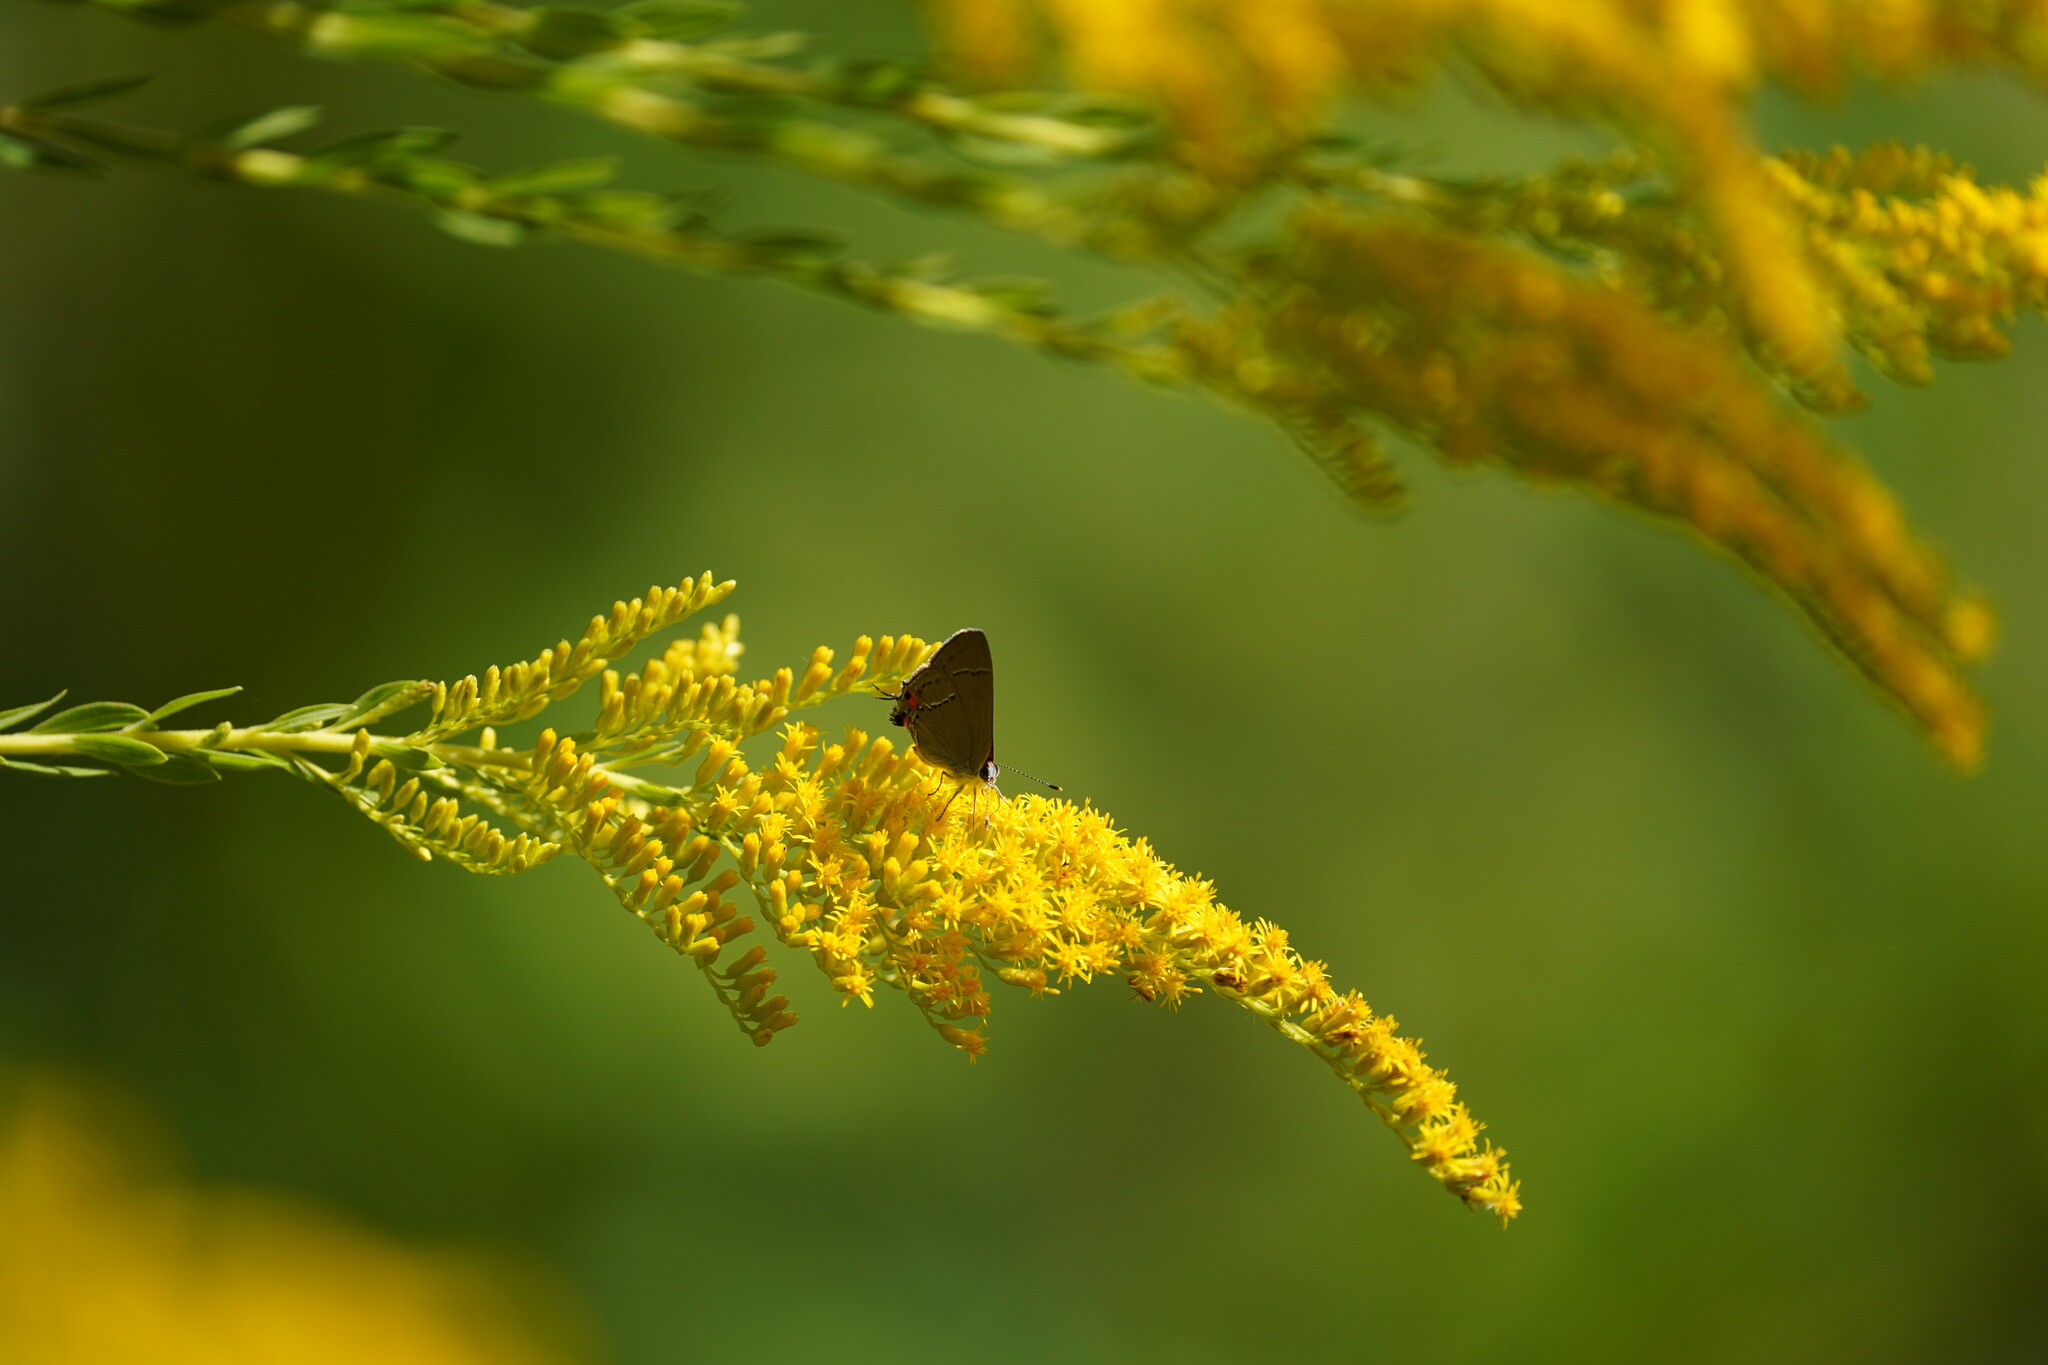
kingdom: Animalia
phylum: Arthropoda
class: Insecta
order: Lepidoptera
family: Lycaenidae
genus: Strymon
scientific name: Strymon melinus
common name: Gray hairstreak
